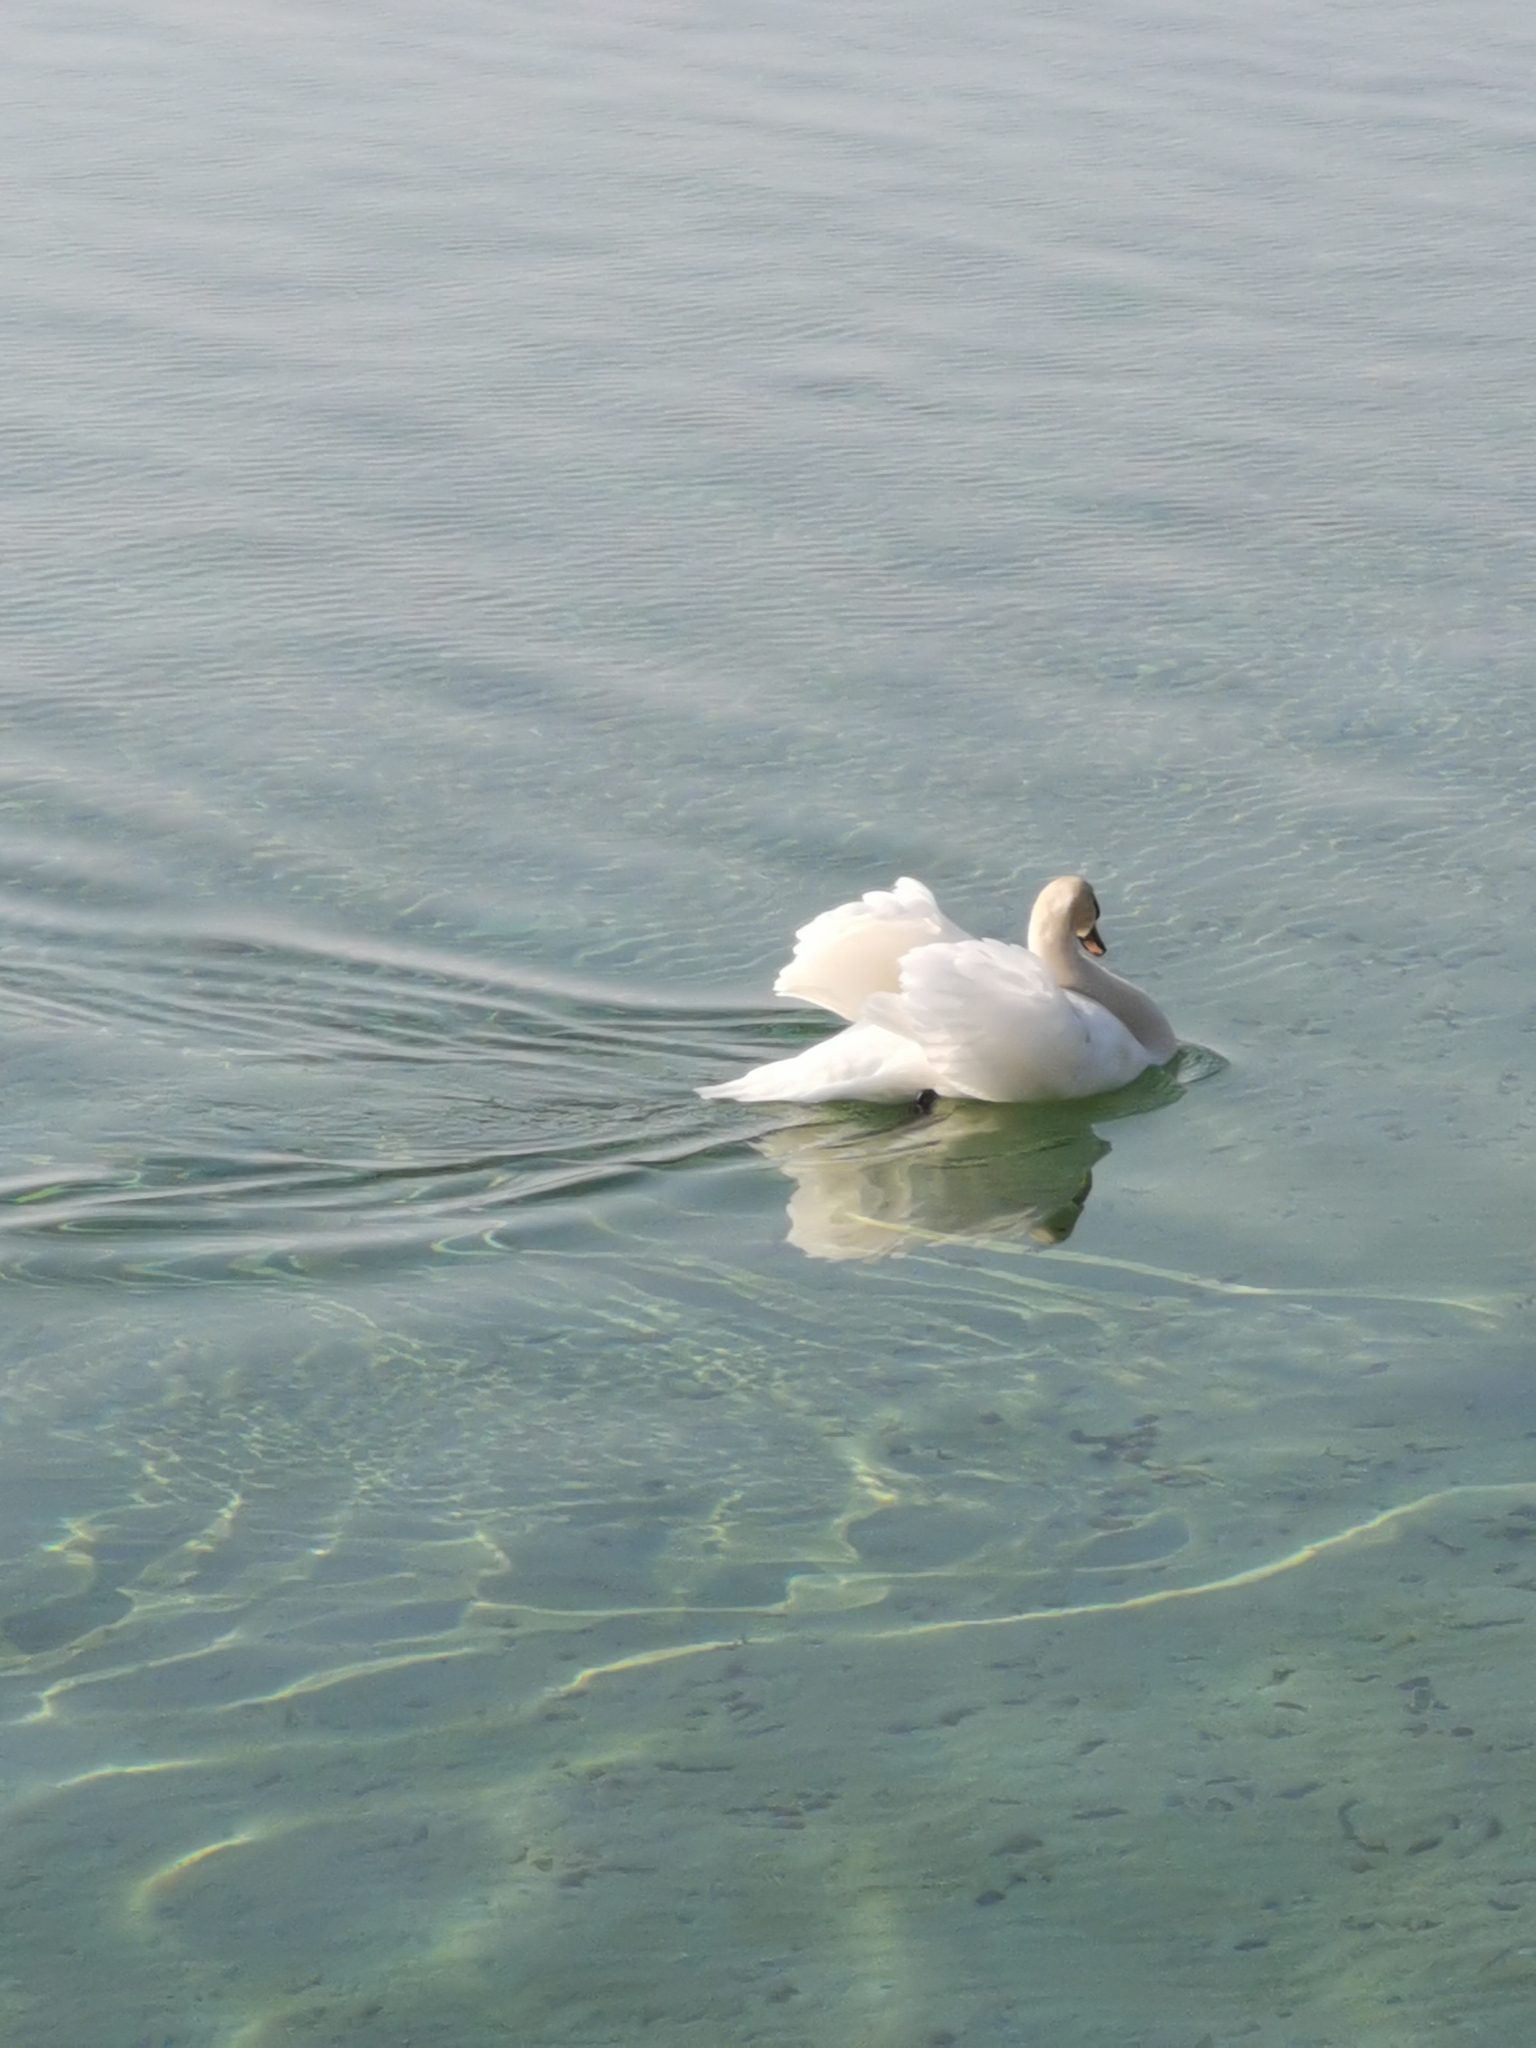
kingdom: Animalia
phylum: Chordata
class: Aves
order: Anseriformes
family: Anatidae
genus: Cygnus
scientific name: Cygnus olor
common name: Mute swan
